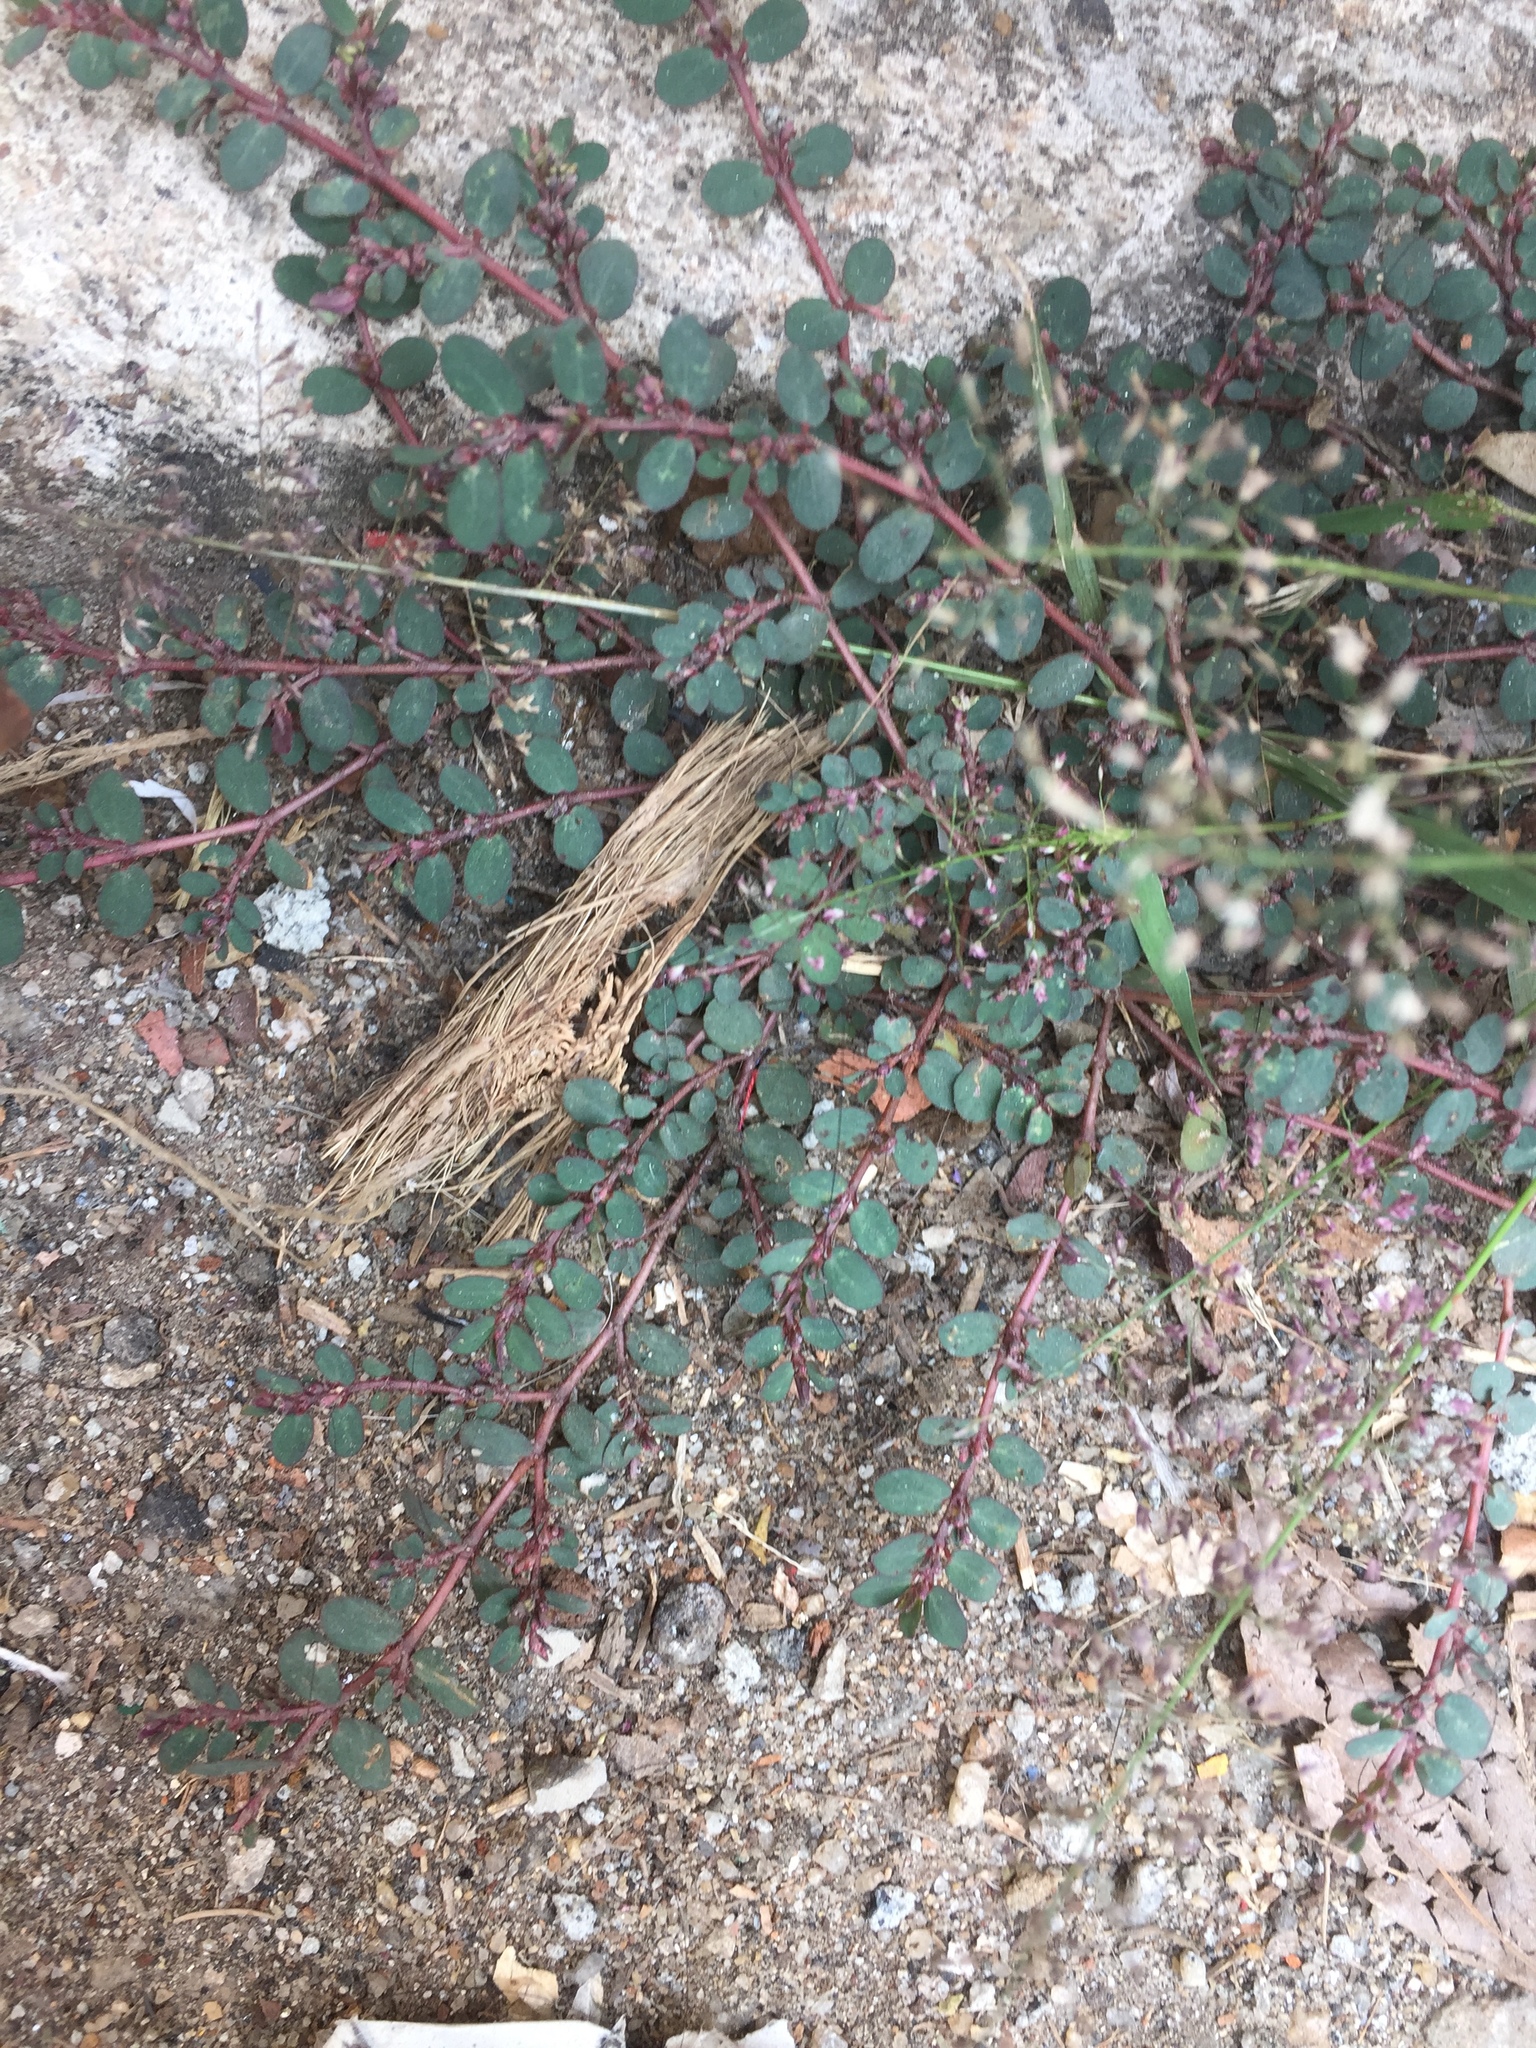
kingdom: Plantae
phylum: Tracheophyta
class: Magnoliopsida
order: Malpighiales
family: Euphorbiaceae
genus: Euphorbia
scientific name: Euphorbia prostrata
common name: Prostrate sandmat
